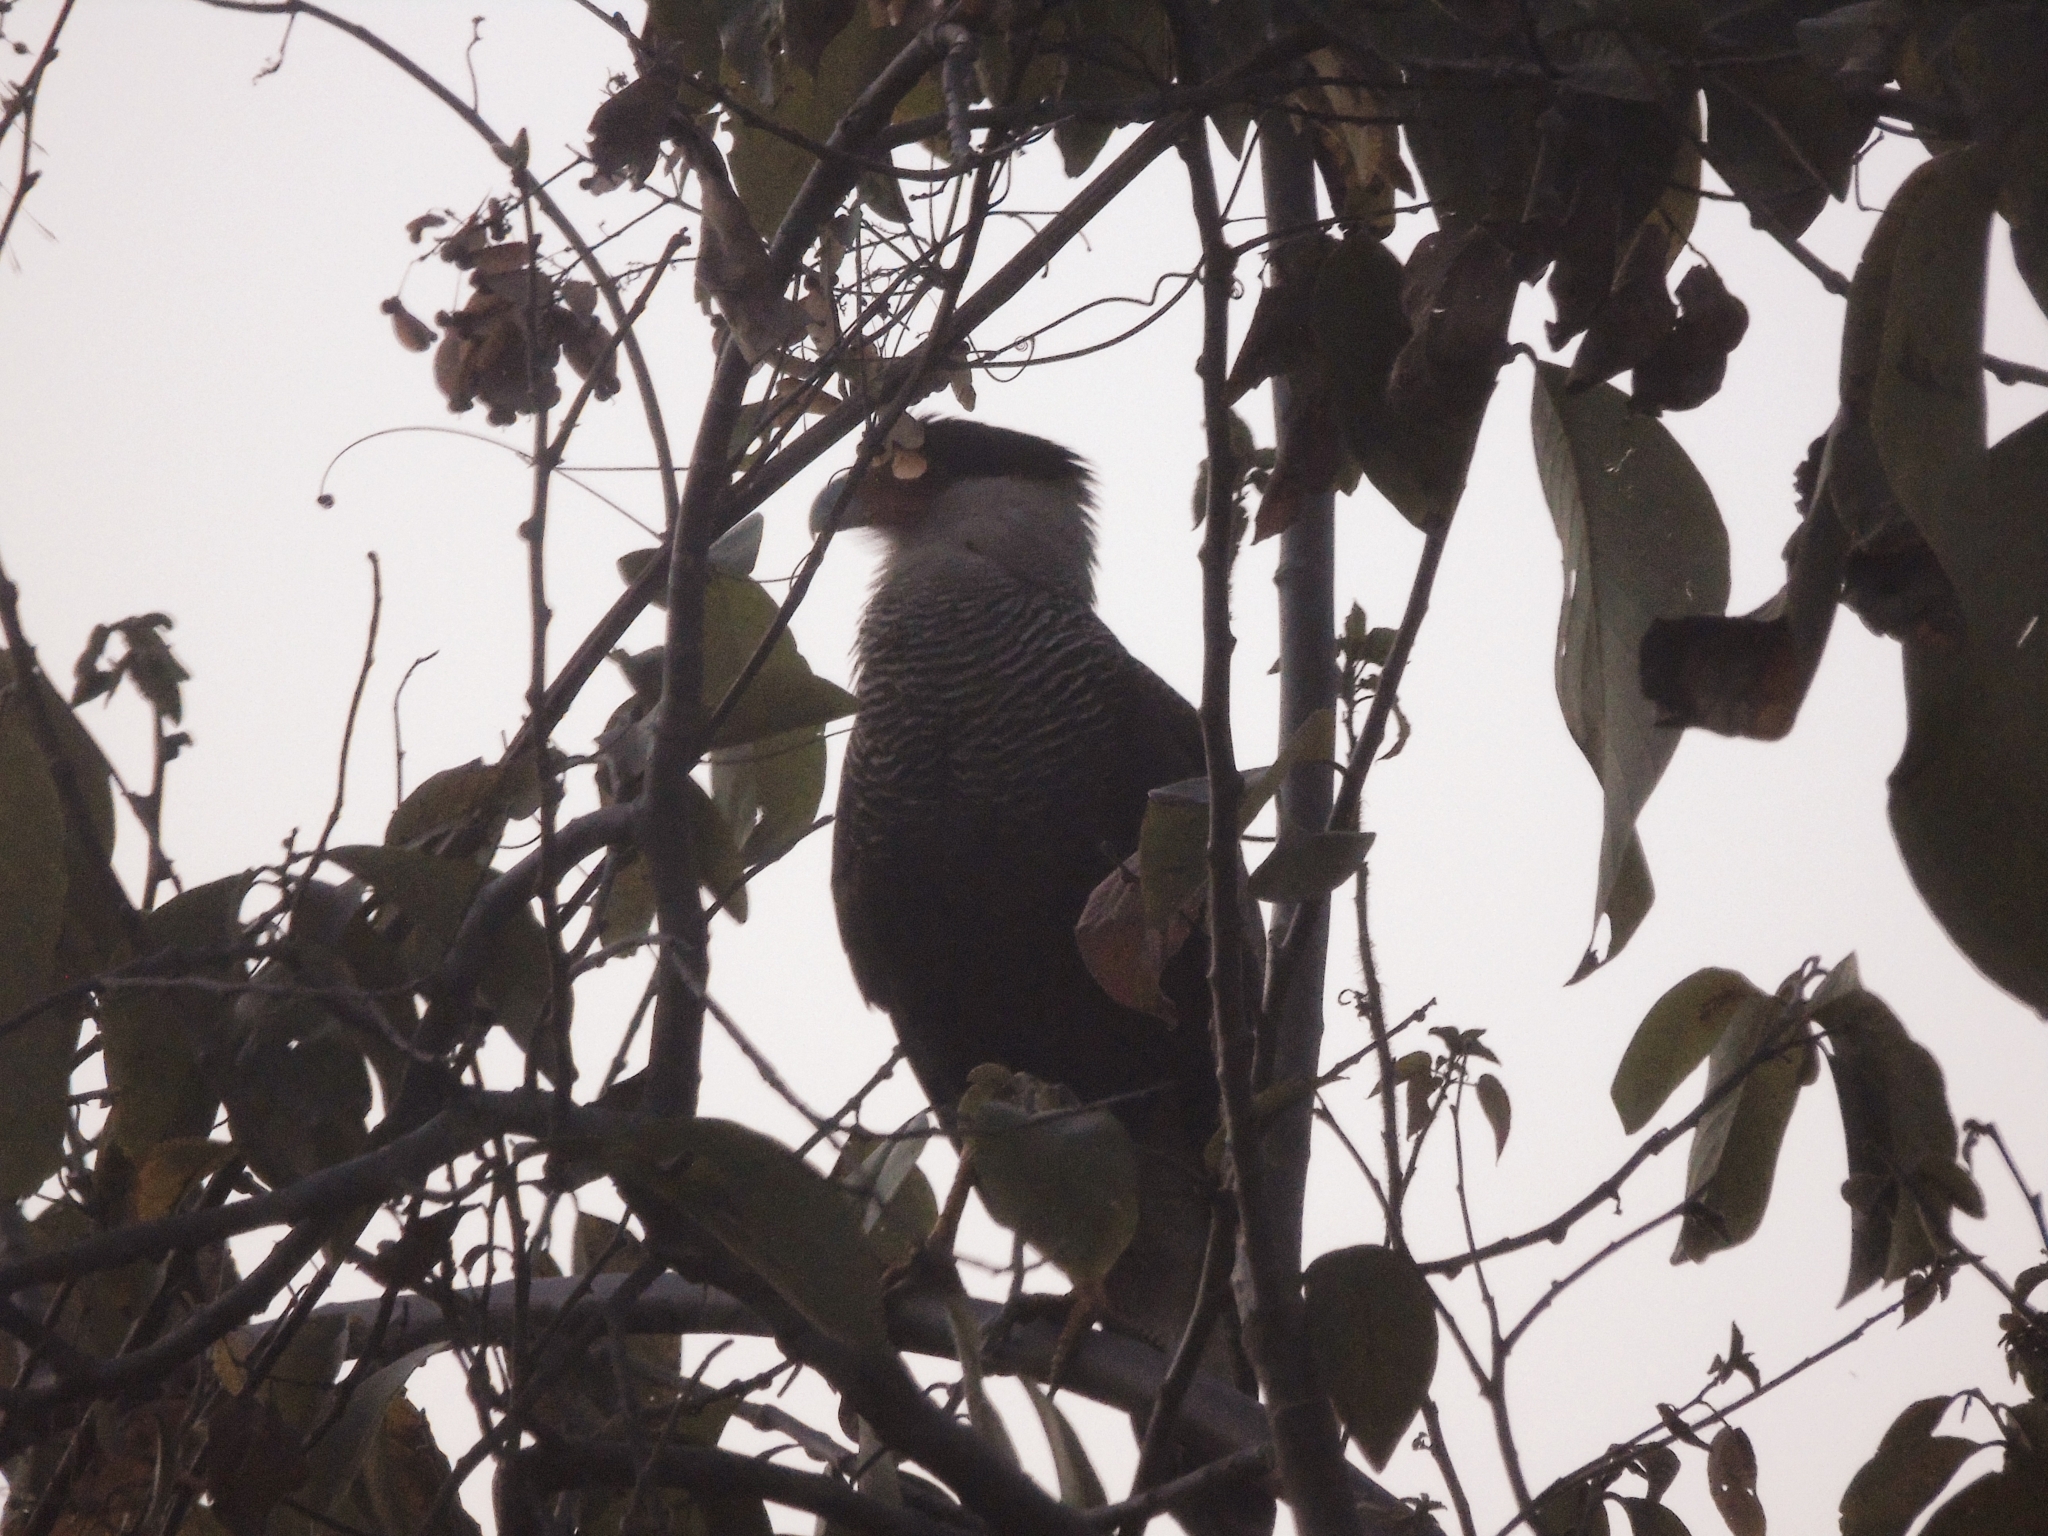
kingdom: Animalia
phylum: Chordata
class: Aves
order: Falconiformes
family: Falconidae
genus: Caracara
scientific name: Caracara plancus
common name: Southern caracara
